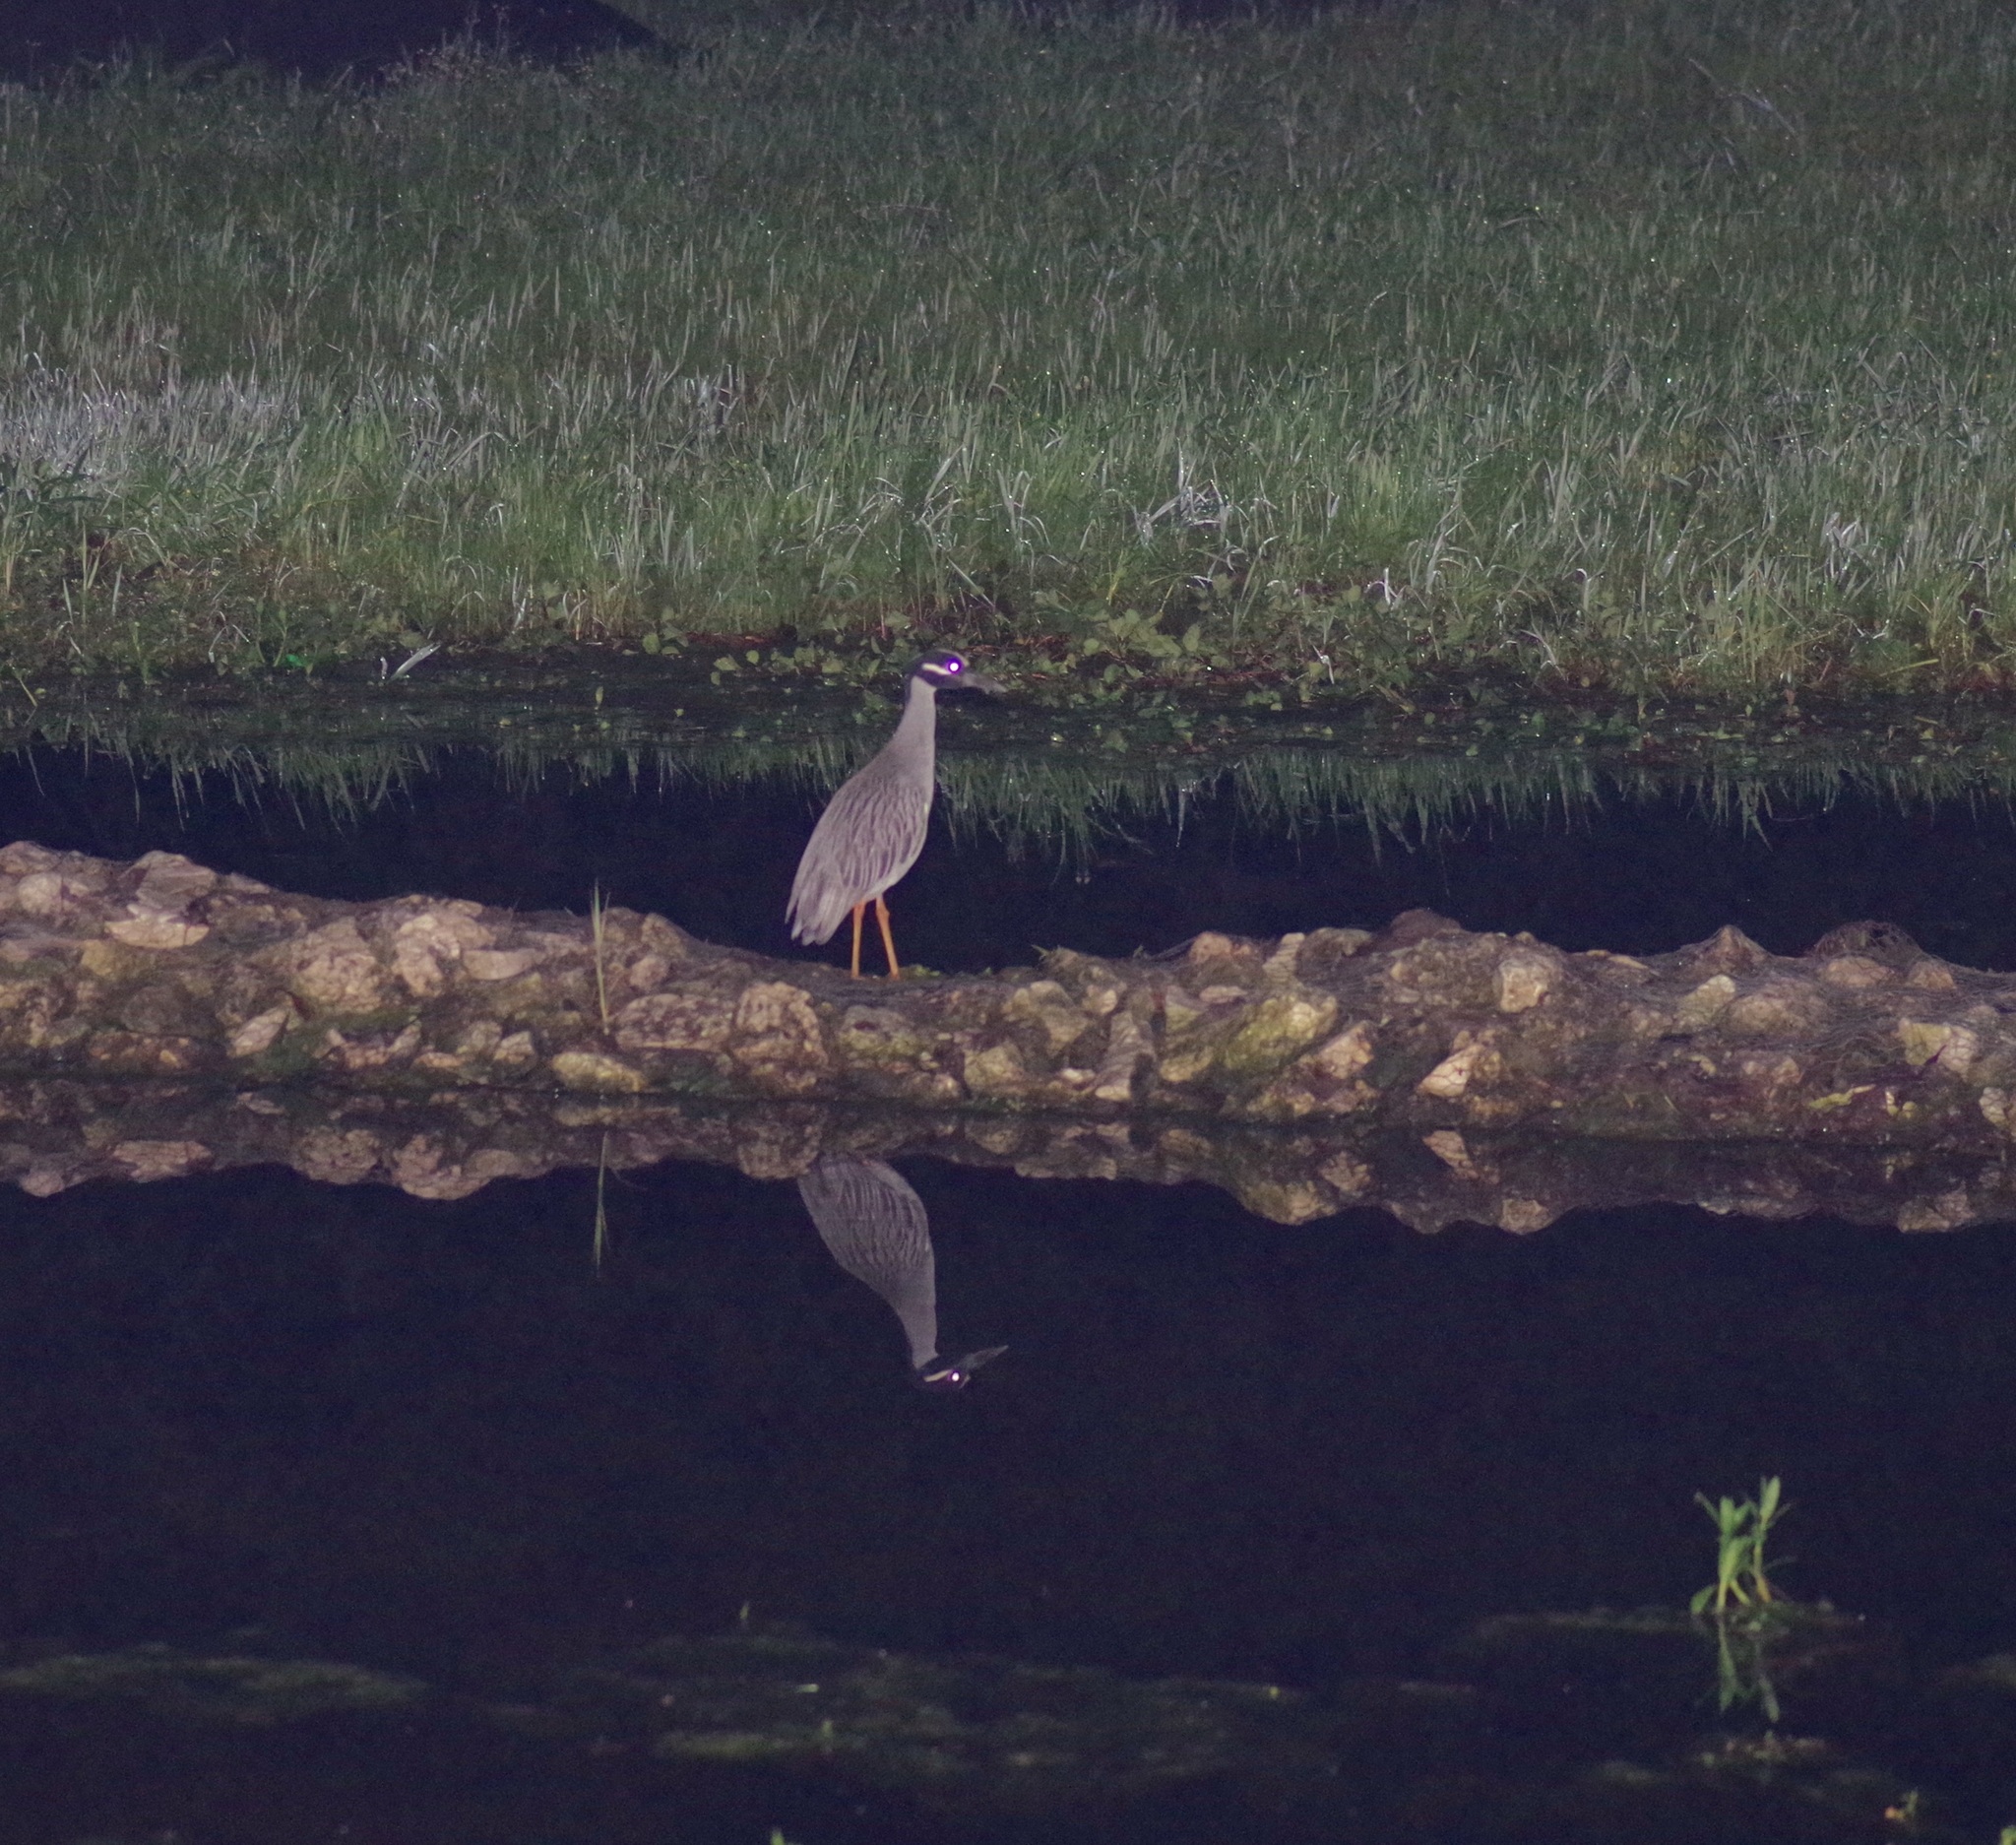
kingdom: Animalia
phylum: Chordata
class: Aves
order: Pelecaniformes
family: Ardeidae
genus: Nyctanassa
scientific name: Nyctanassa violacea
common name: Yellow-crowned night heron
